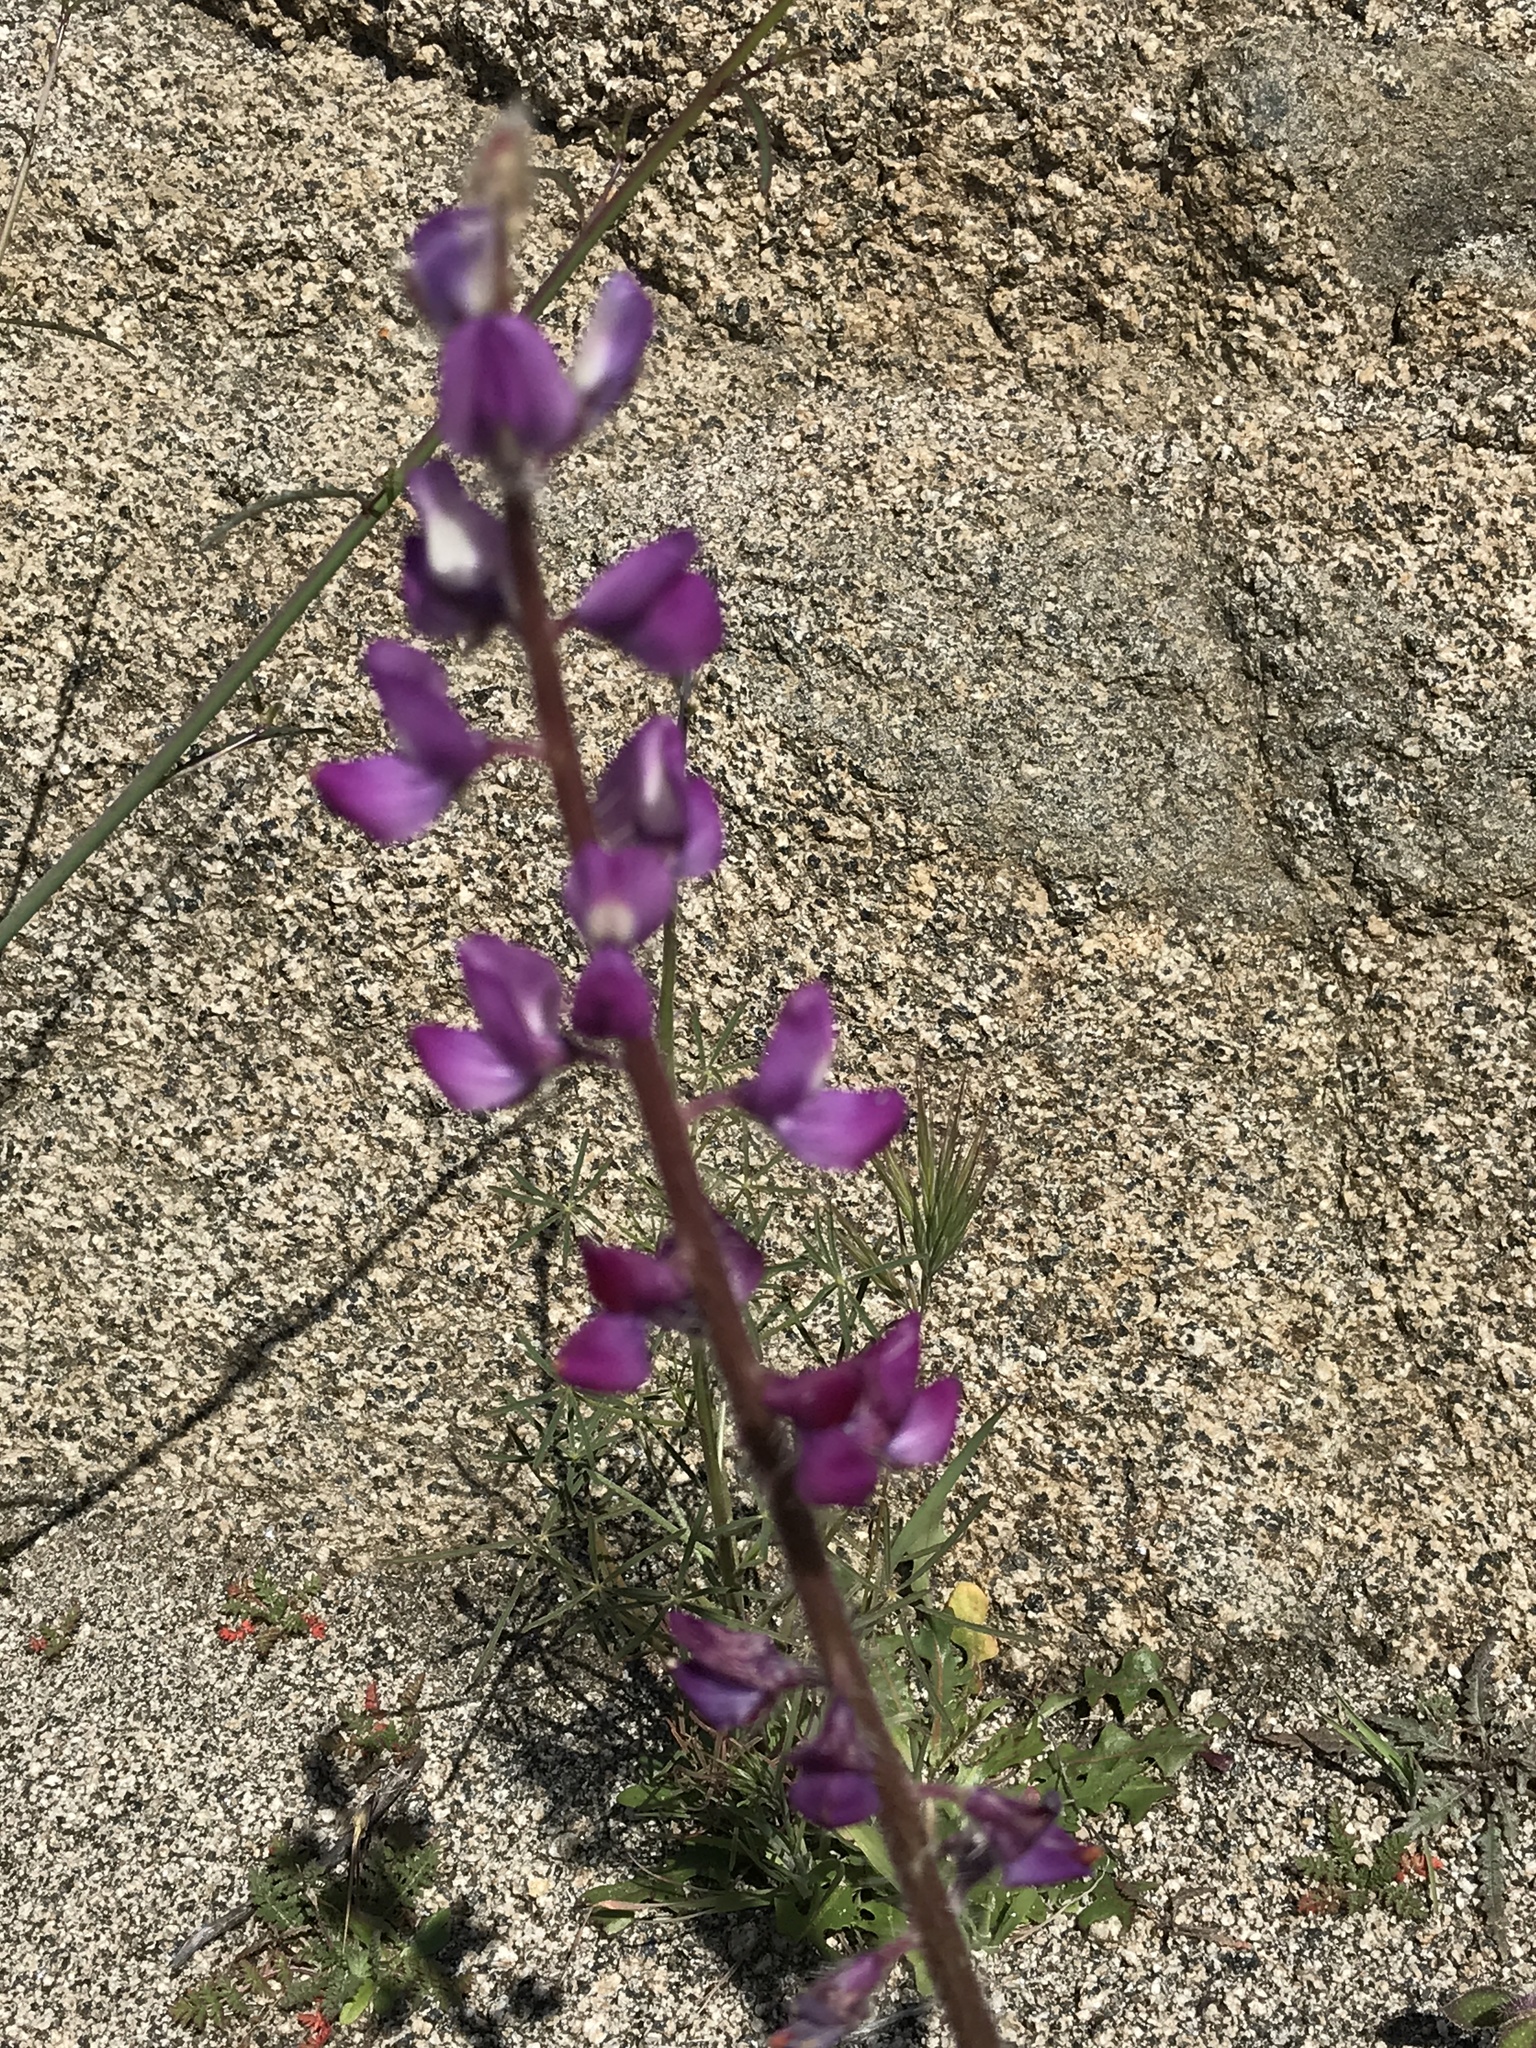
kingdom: Plantae
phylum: Tracheophyta
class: Magnoliopsida
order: Fabales
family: Fabaceae
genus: Lupinus
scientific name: Lupinus hirsutissimus
